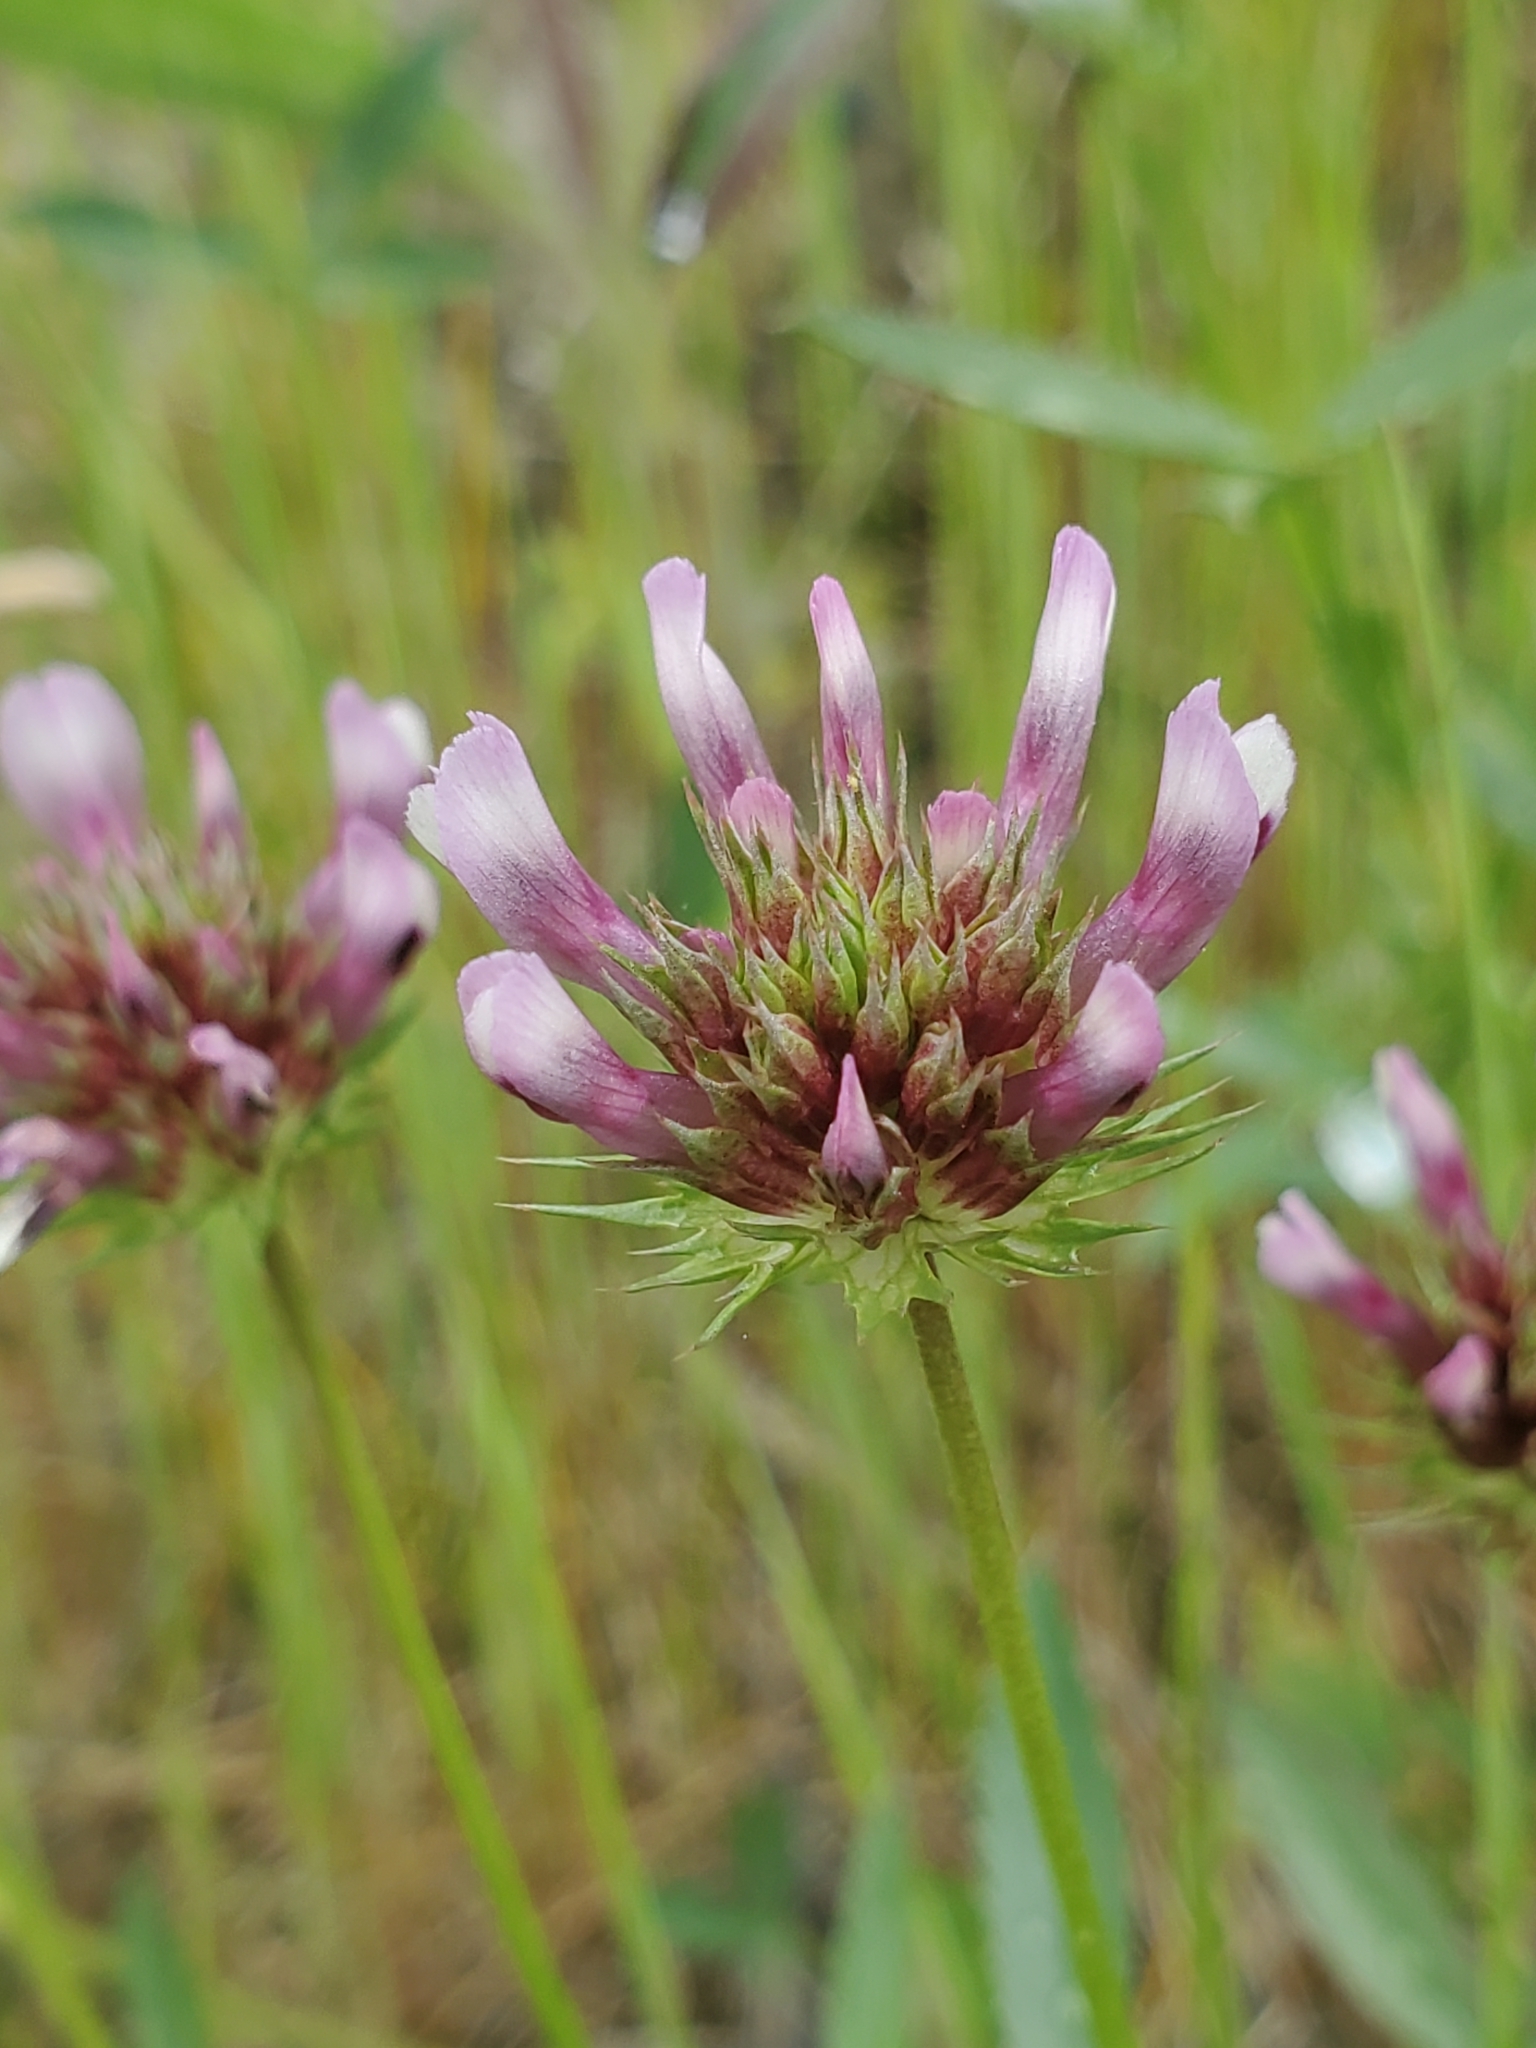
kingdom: Plantae
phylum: Tracheophyta
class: Magnoliopsida
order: Fabales
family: Fabaceae
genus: Trifolium
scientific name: Trifolium willdenovii
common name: Tomcat clover
